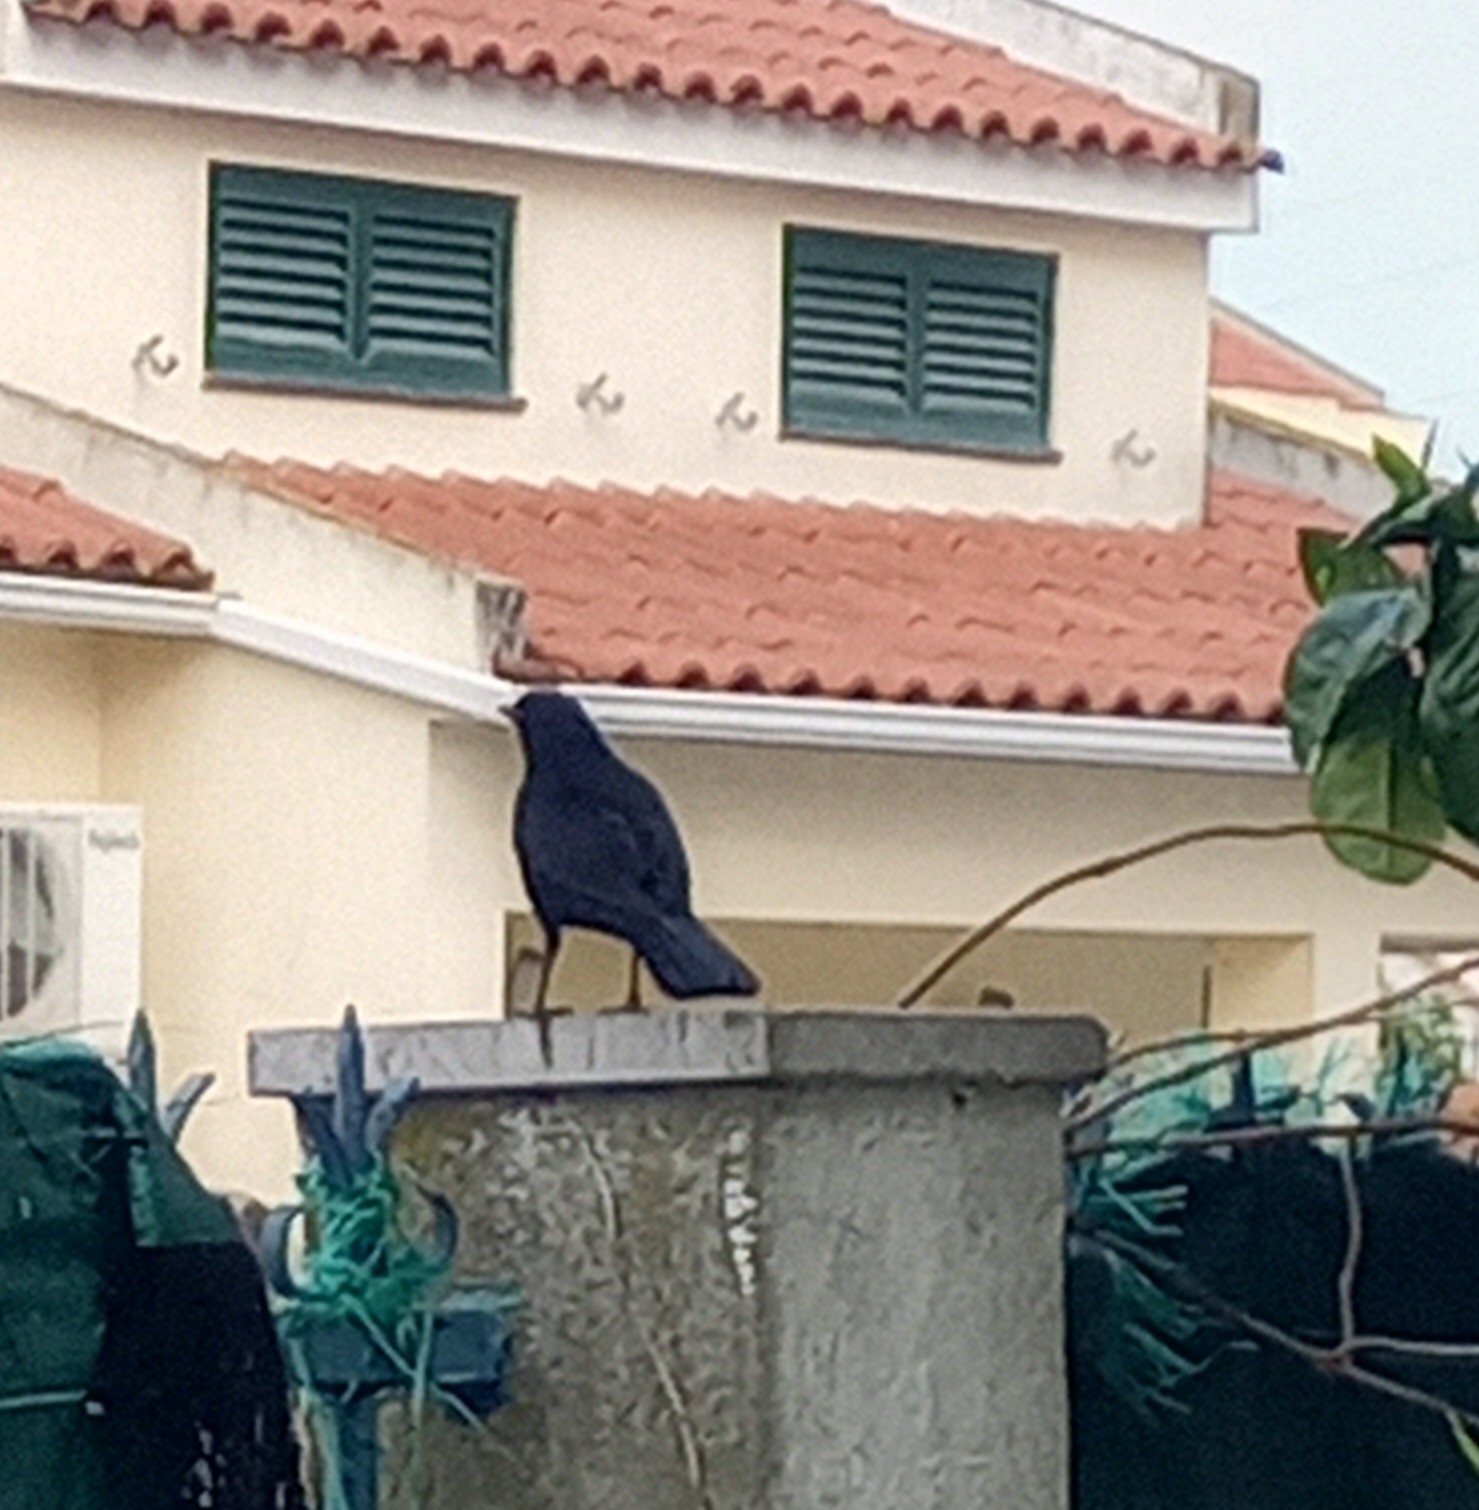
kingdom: Animalia
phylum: Chordata
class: Aves
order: Passeriformes
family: Turdidae
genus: Turdus
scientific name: Turdus merula
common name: Common blackbird
